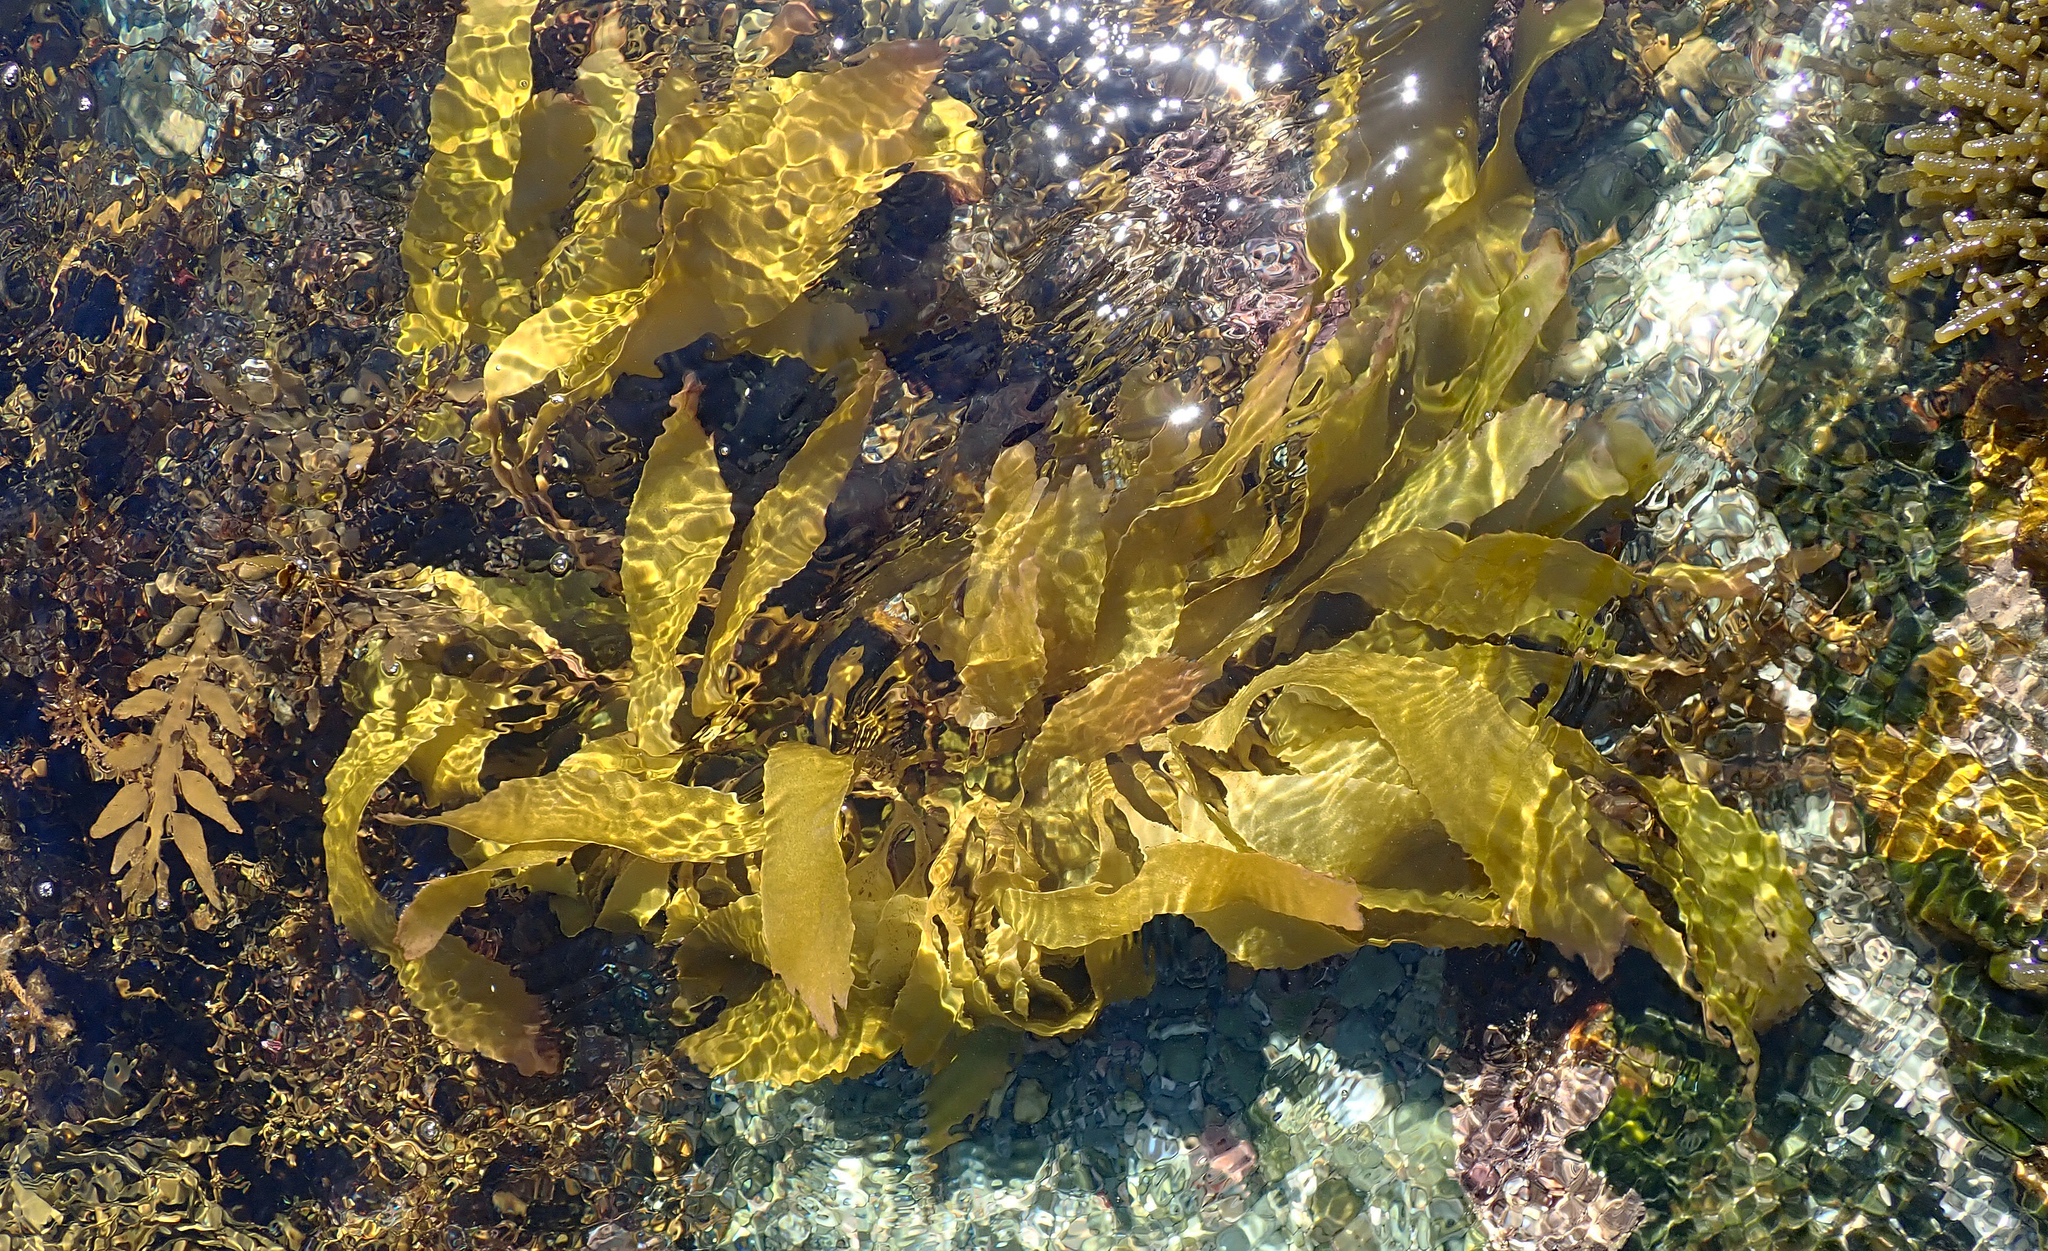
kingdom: Chromista
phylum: Ochrophyta
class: Phaeophyceae
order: Laminariales
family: Lessoniaceae
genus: Lessonia
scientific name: Lessonia tholiformis
